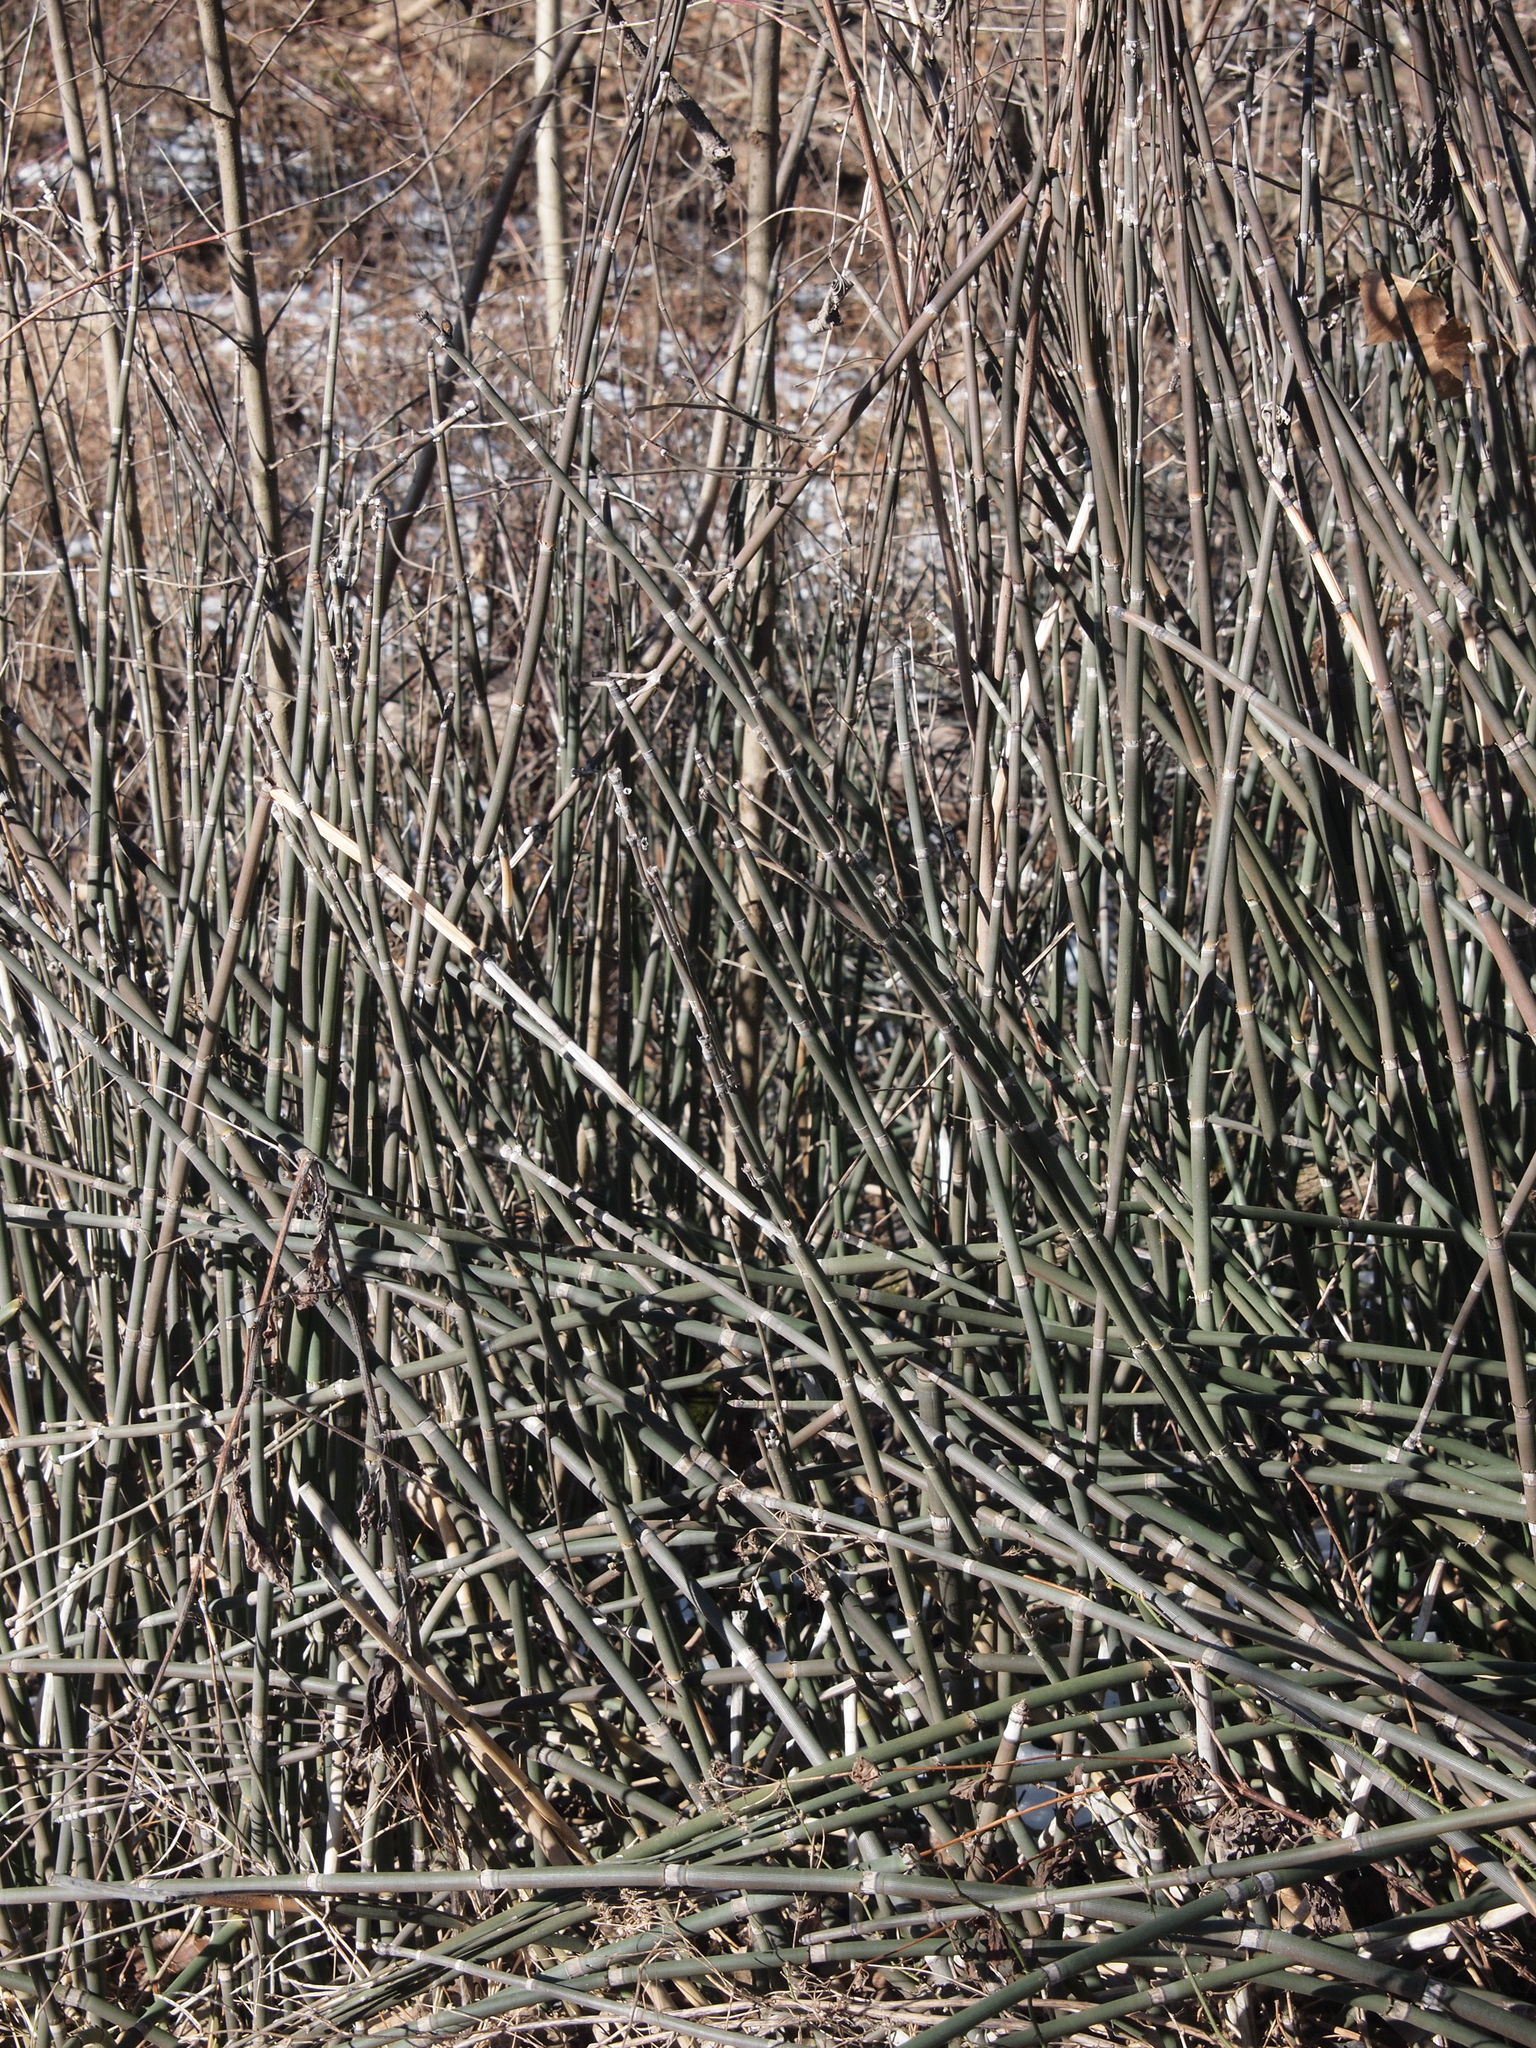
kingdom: Plantae
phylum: Tracheophyta
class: Polypodiopsida
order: Equisetales
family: Equisetaceae
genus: Equisetum
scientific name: Equisetum hyemale
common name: Rough horsetail
